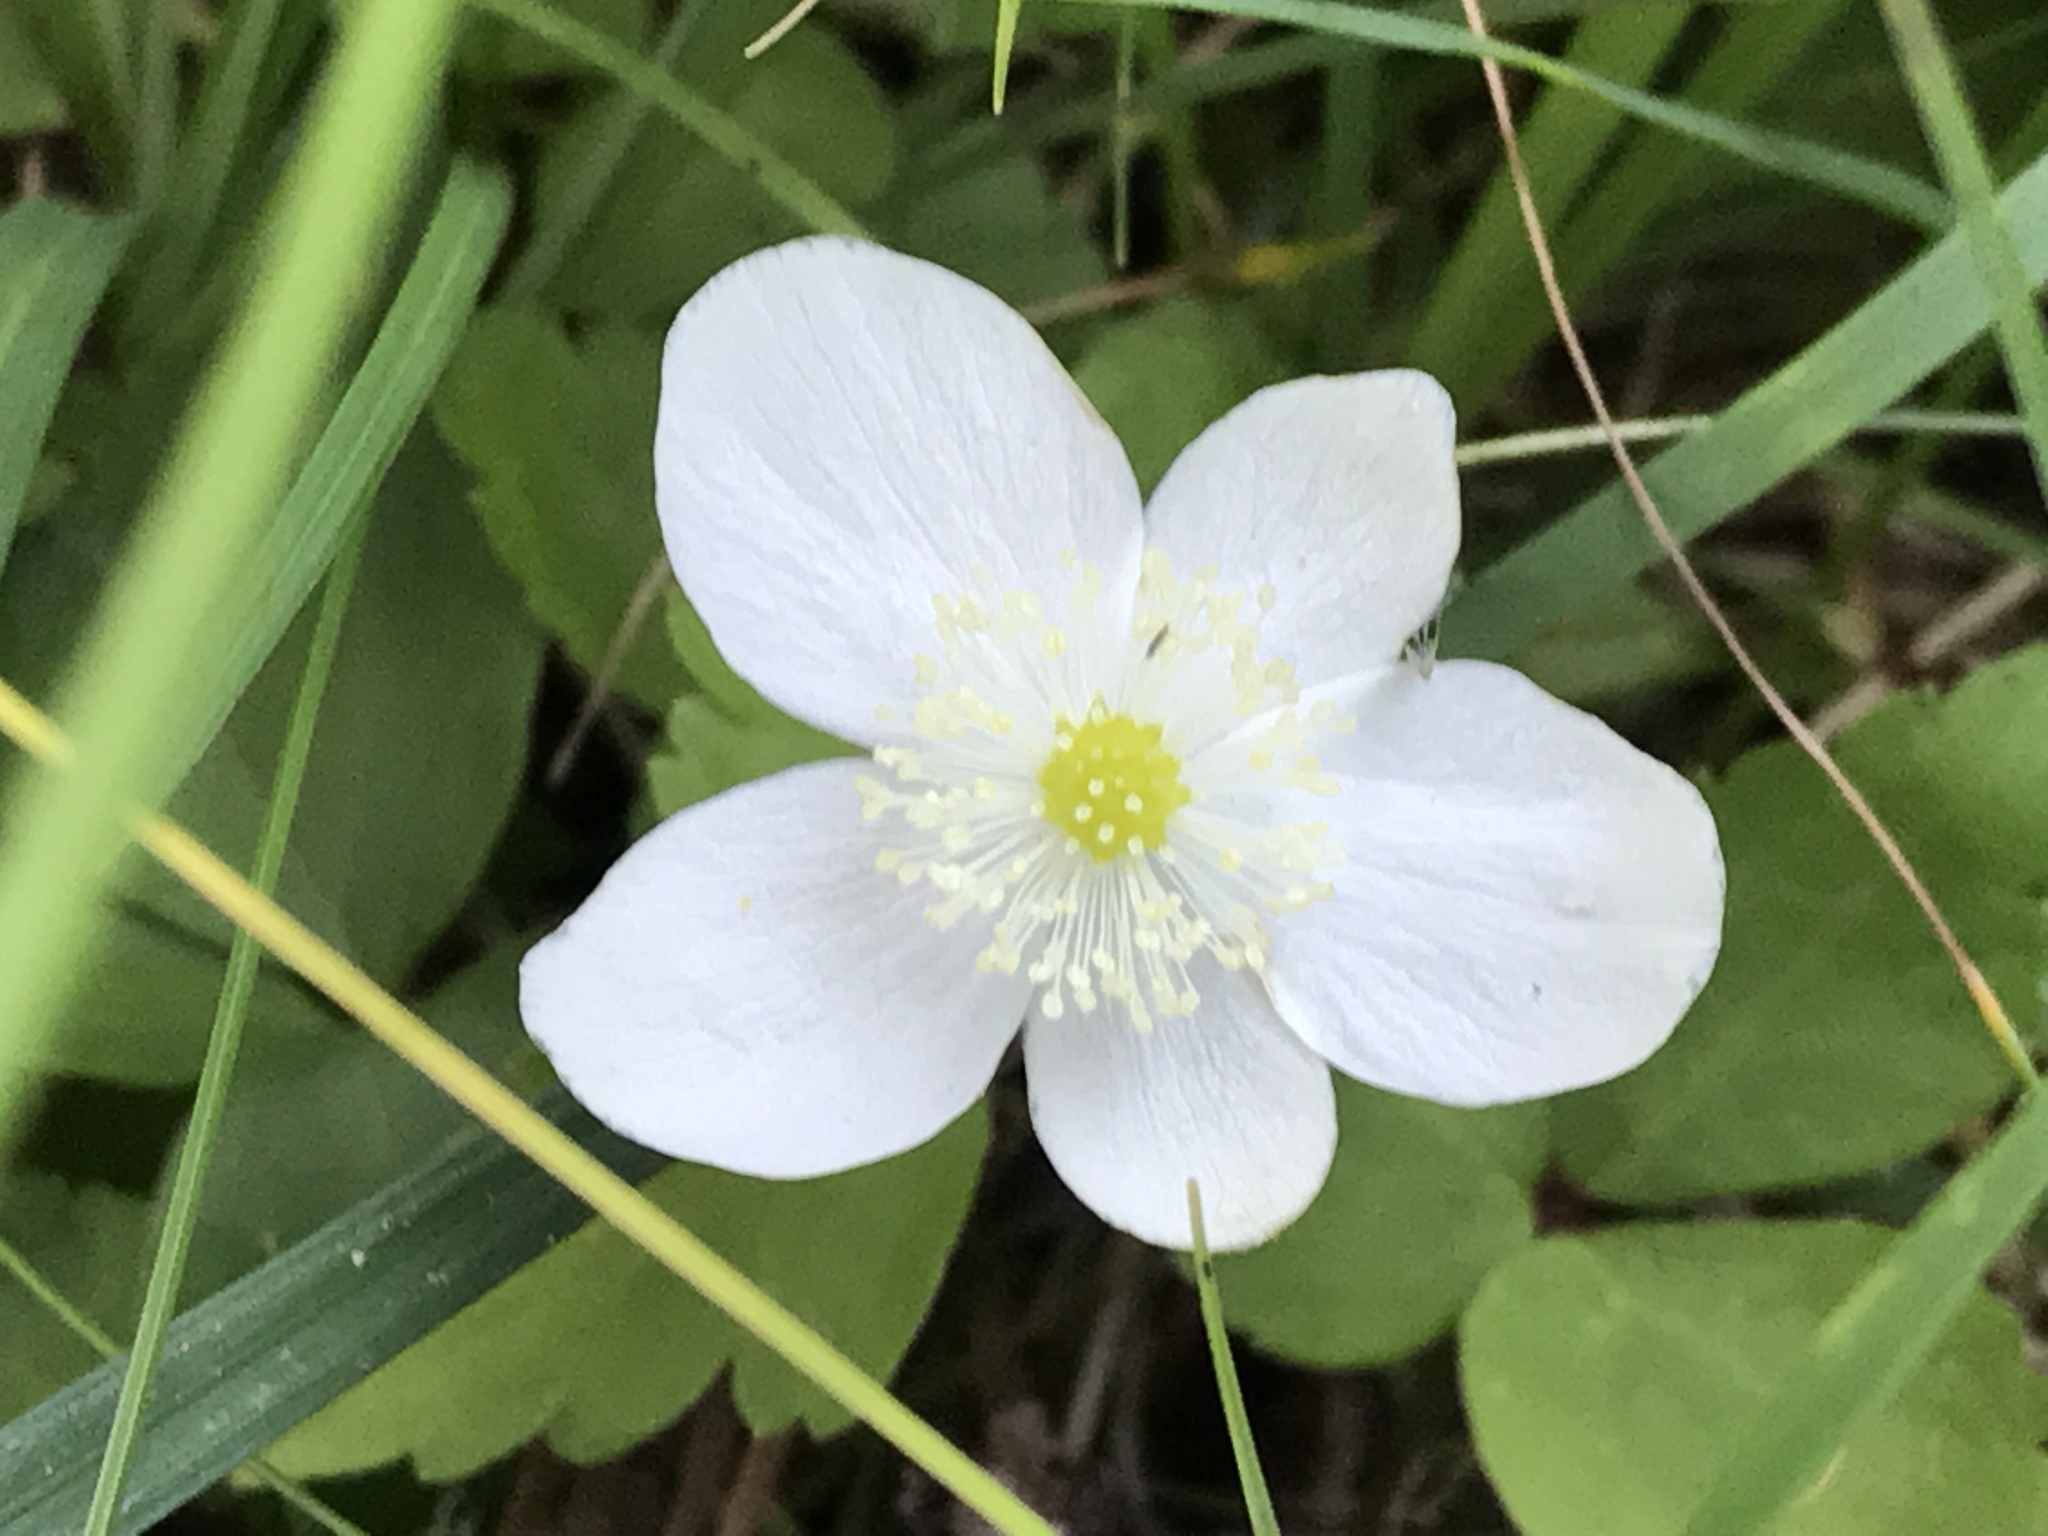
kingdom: Plantae
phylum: Tracheophyta
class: Magnoliopsida
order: Ranunculales
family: Ranunculaceae
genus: Anemonastrum
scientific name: Anemonastrum deltoideum
